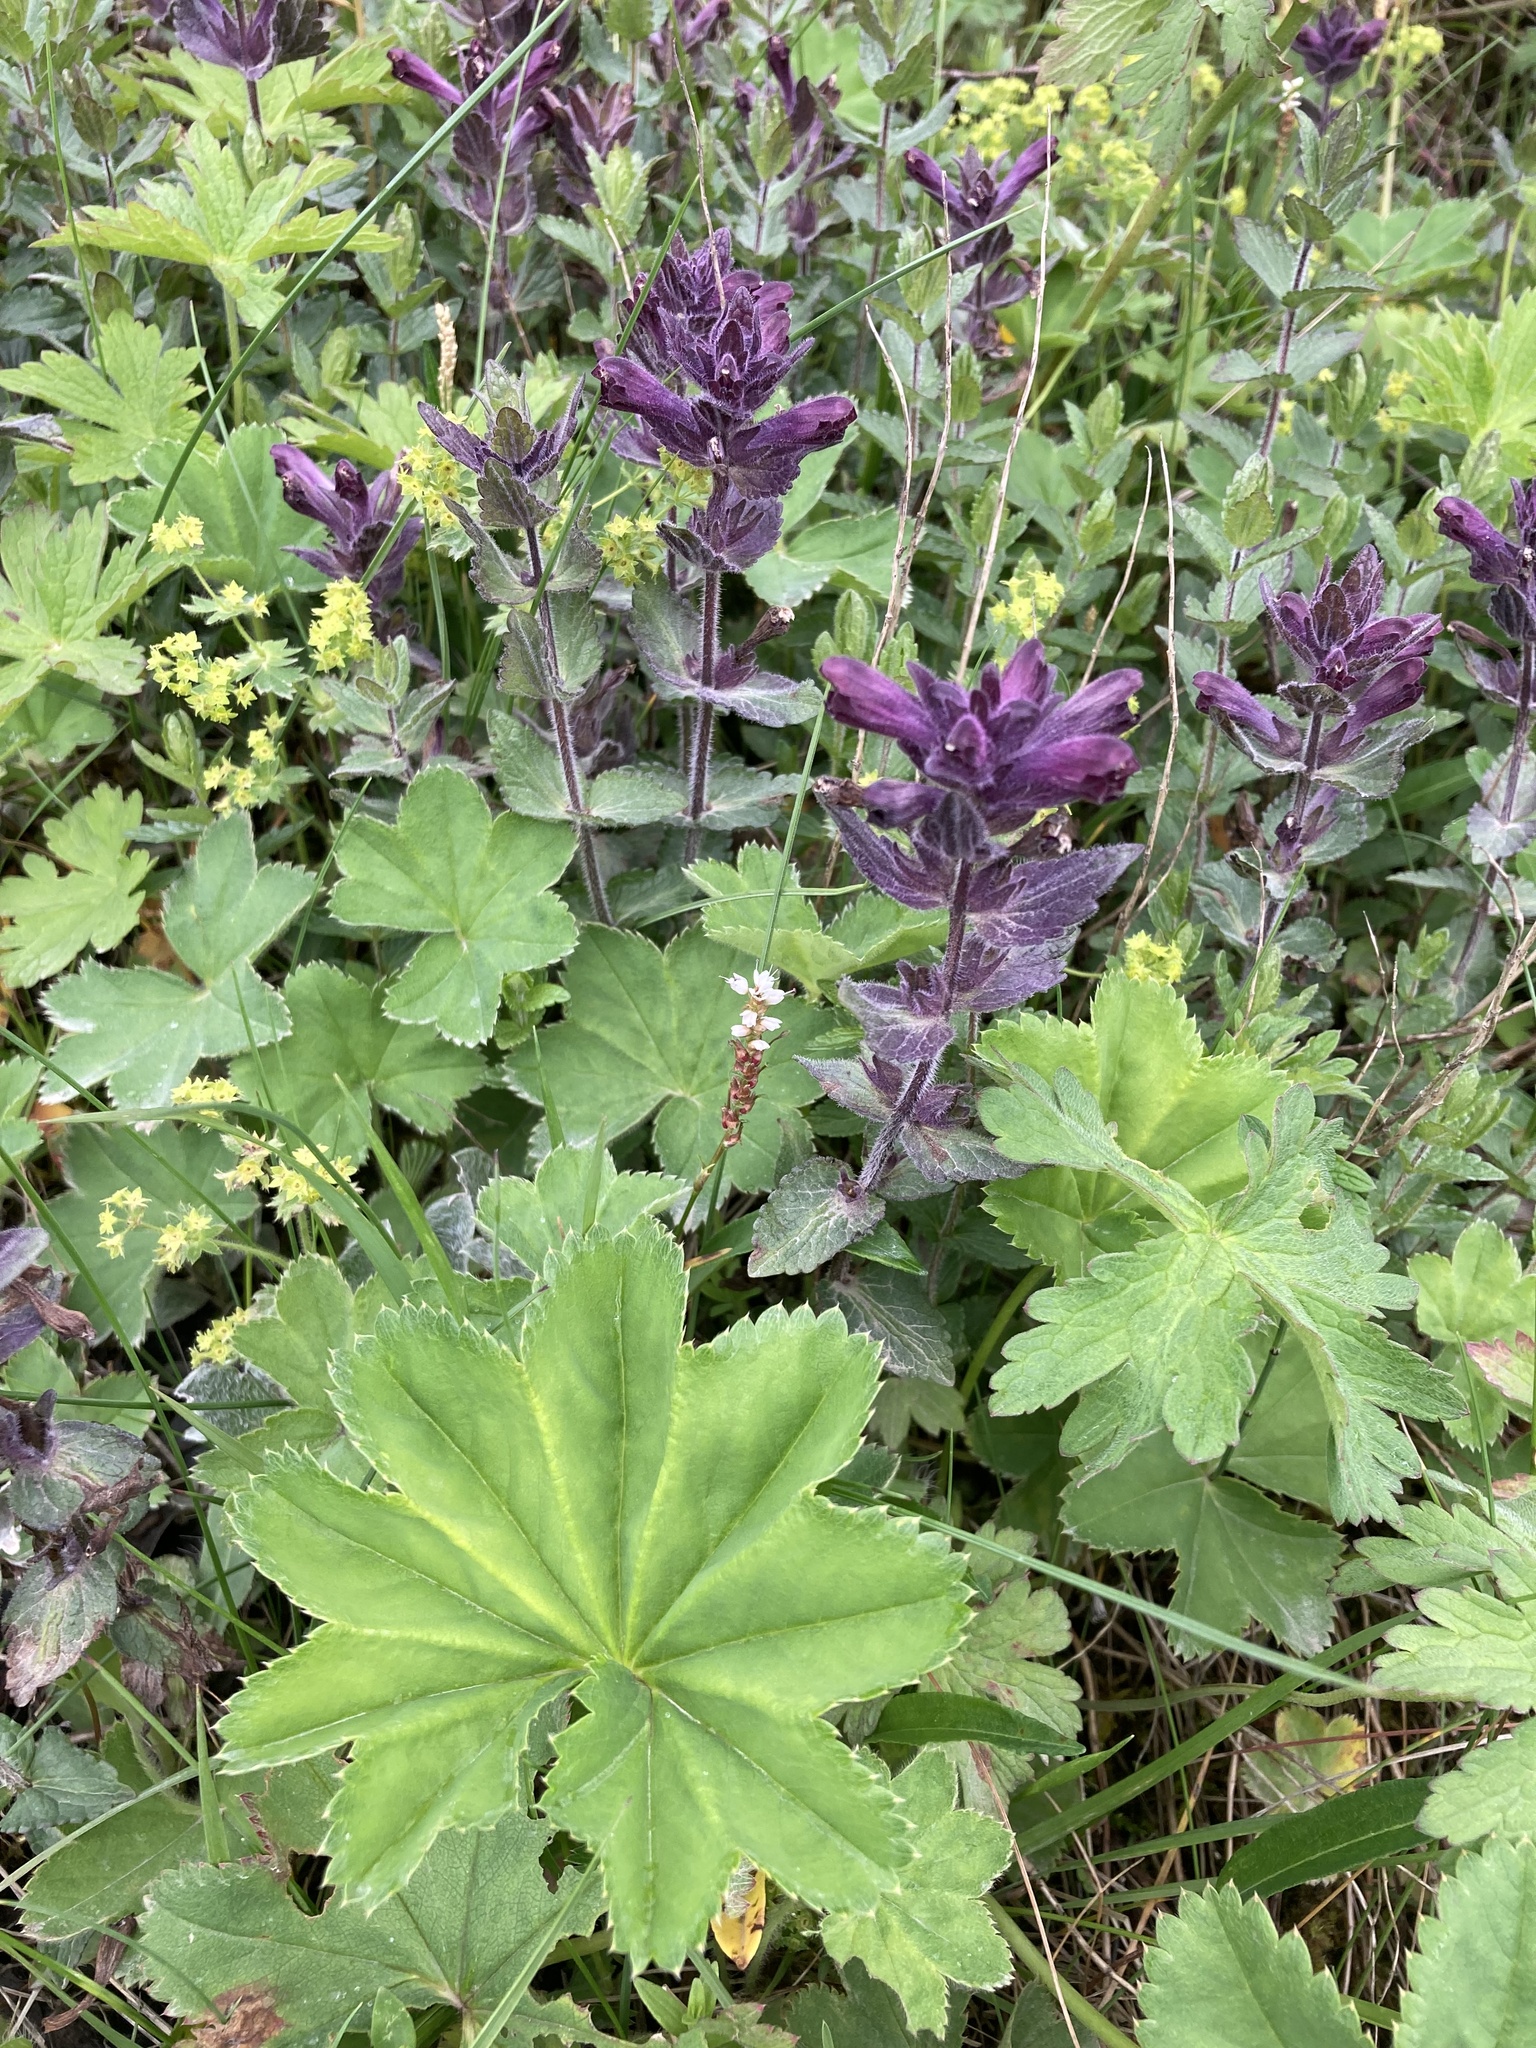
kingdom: Plantae
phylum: Tracheophyta
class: Magnoliopsida
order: Lamiales
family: Orobanchaceae
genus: Bartsia
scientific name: Bartsia alpina
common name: Alpine bartsia
